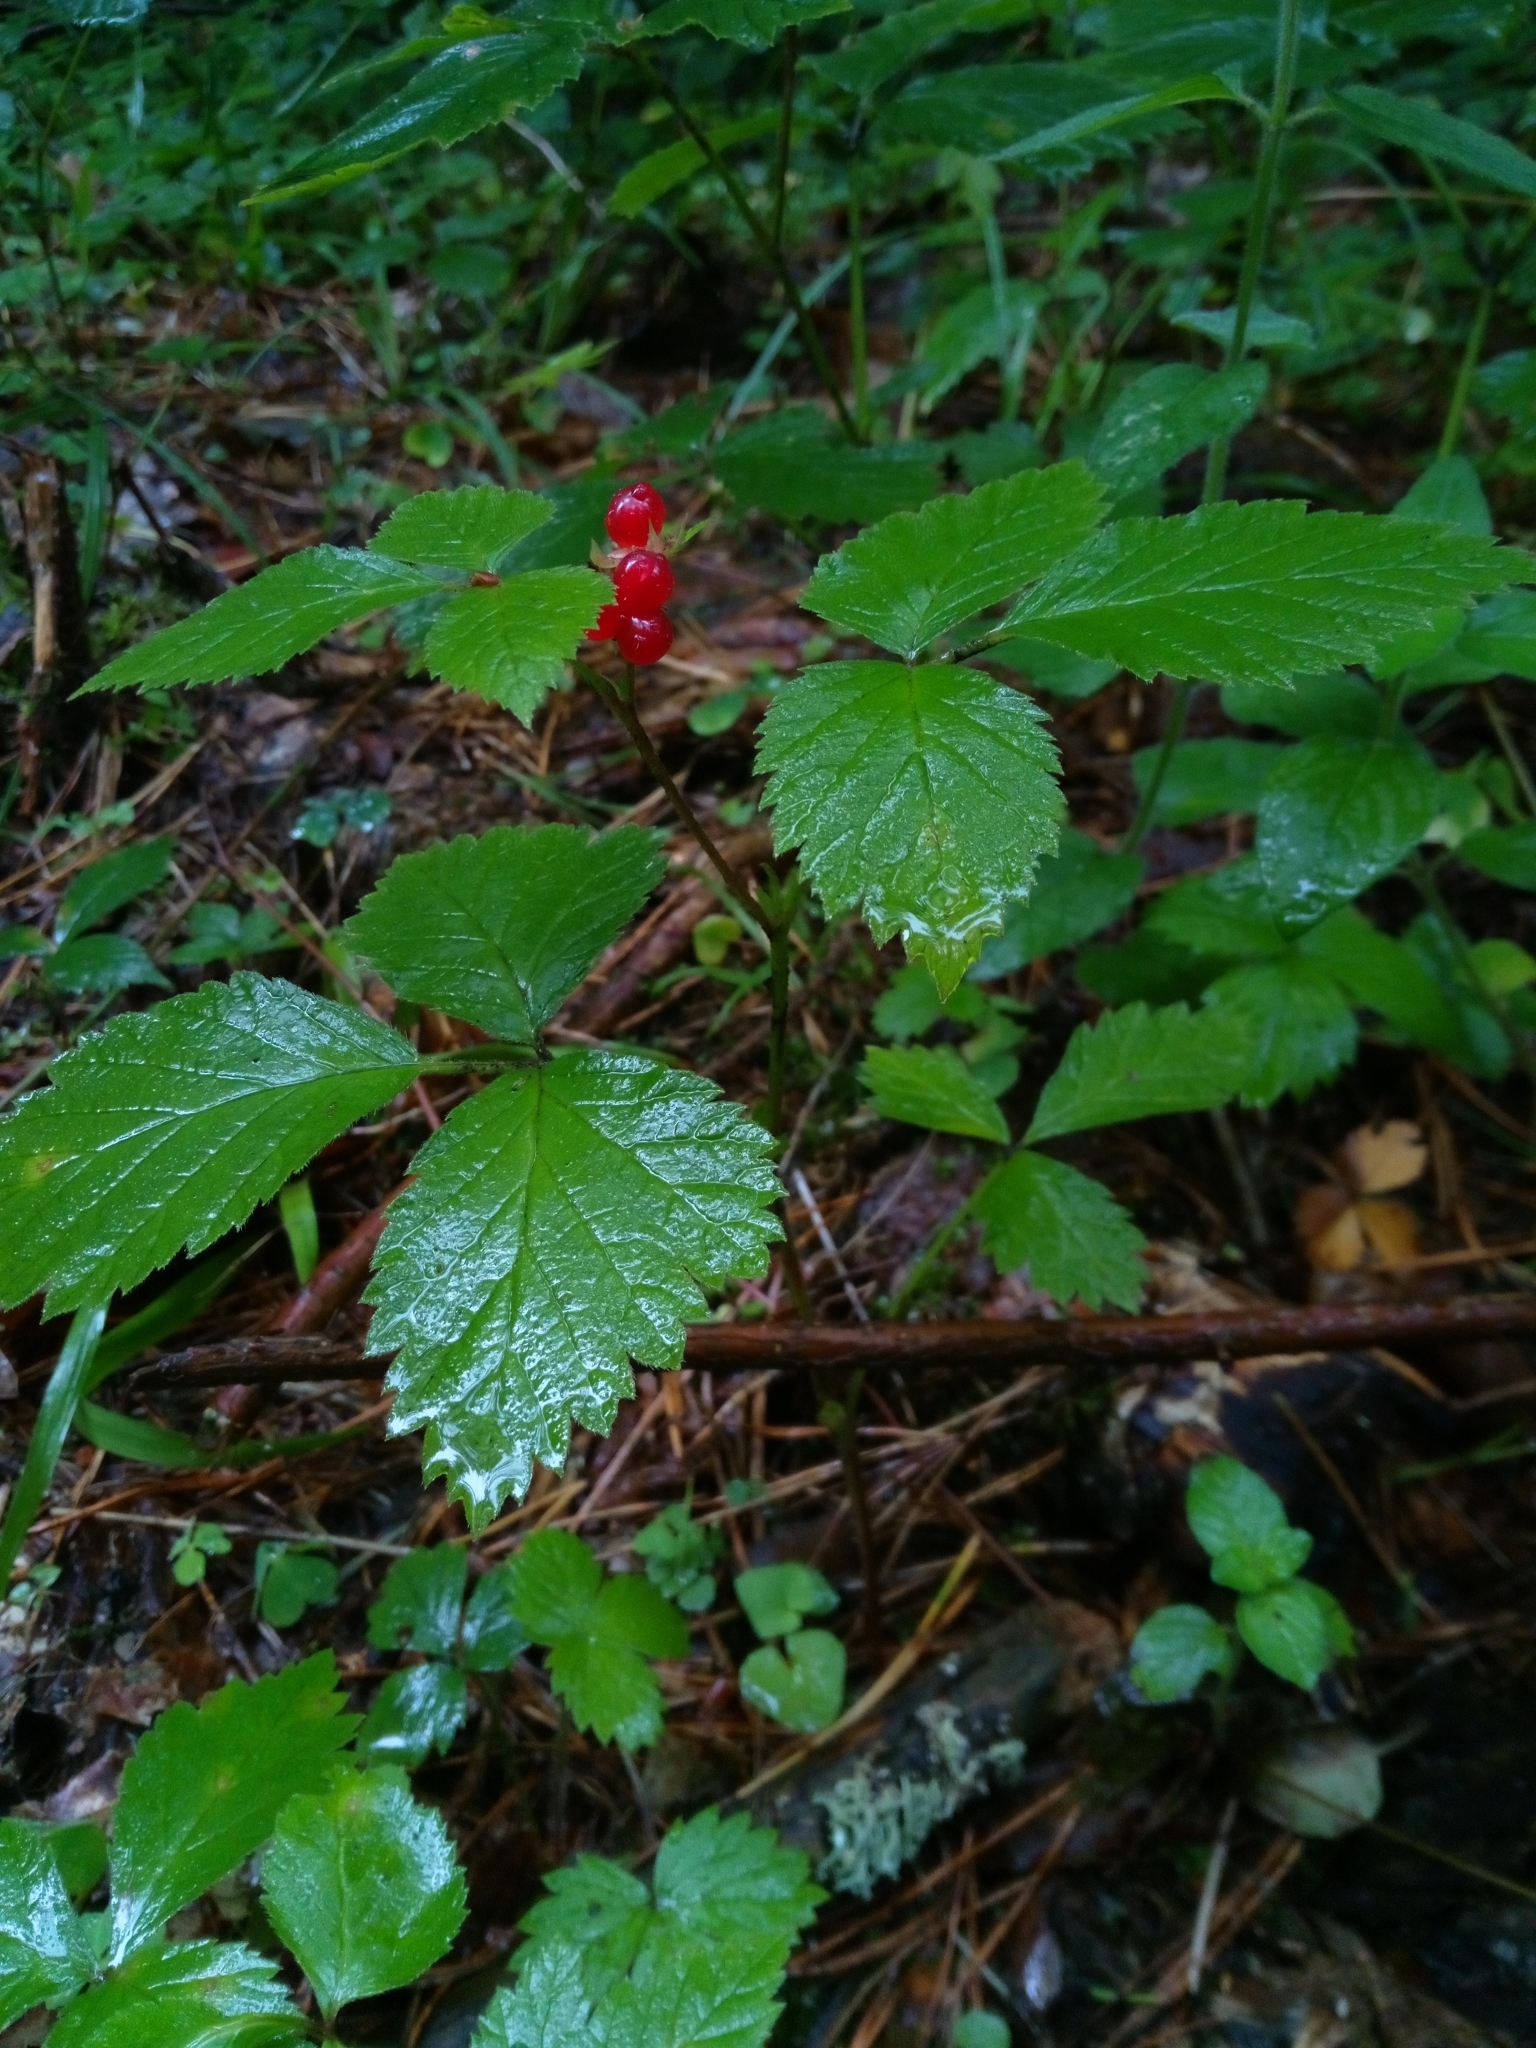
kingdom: Plantae
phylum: Tracheophyta
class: Magnoliopsida
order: Rosales
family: Rosaceae
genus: Rubus
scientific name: Rubus saxatilis
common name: Stone bramble
